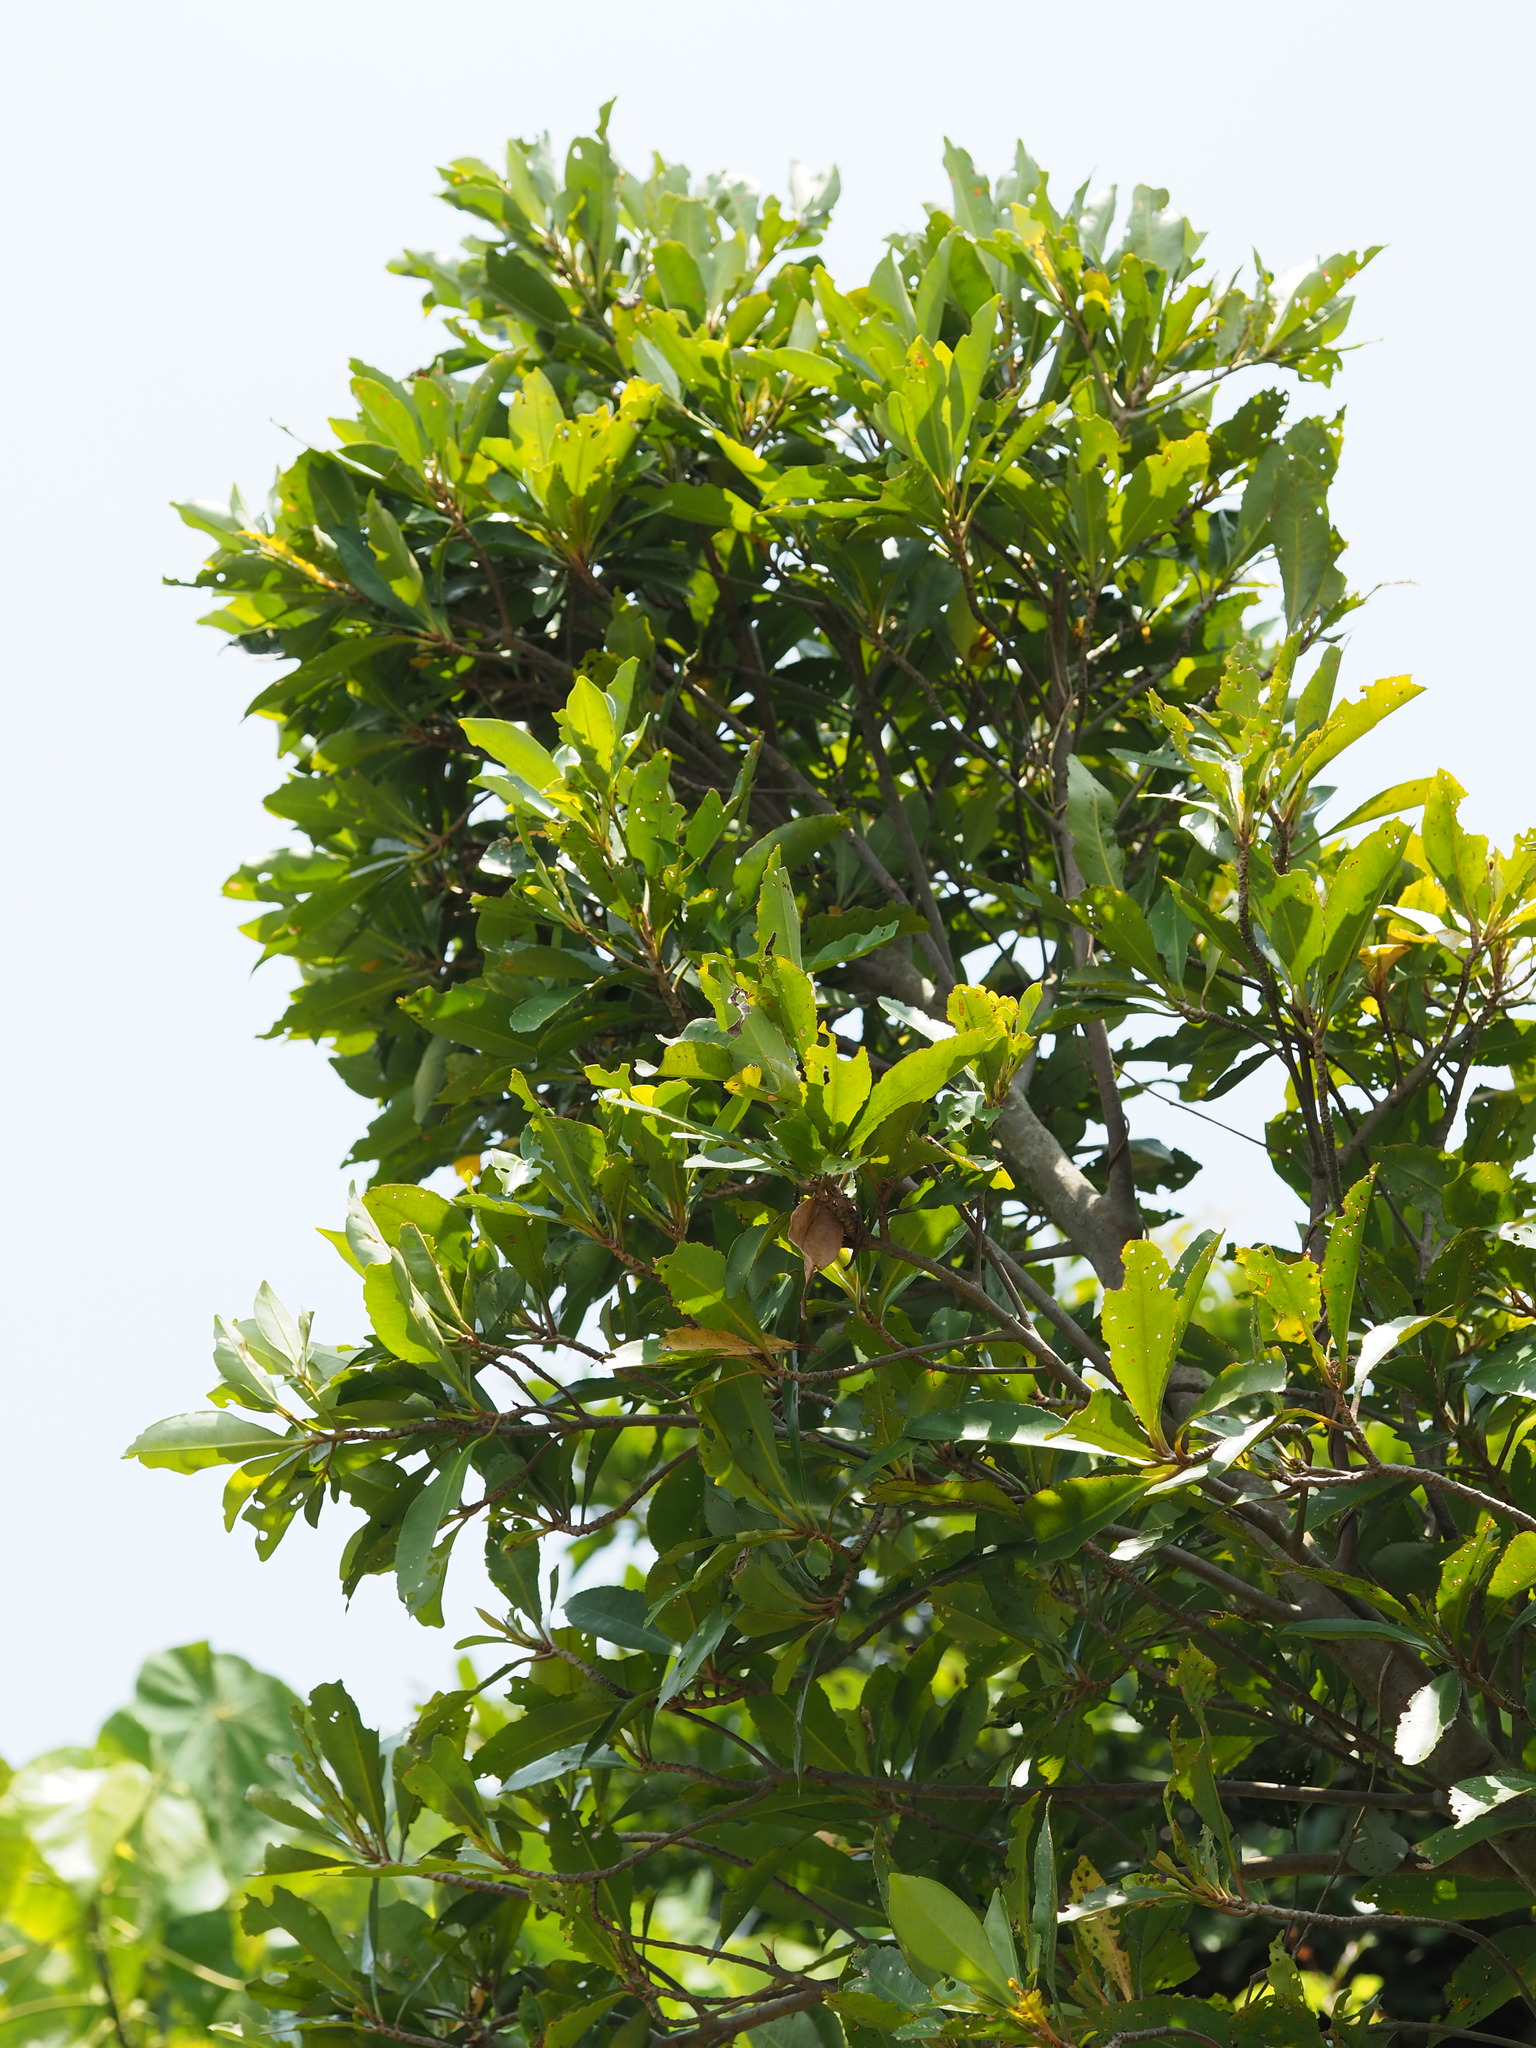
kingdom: Plantae
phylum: Tracheophyta
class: Magnoliopsida
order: Ericales
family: Primulaceae
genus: Ardisia
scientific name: Ardisia sieboldii
